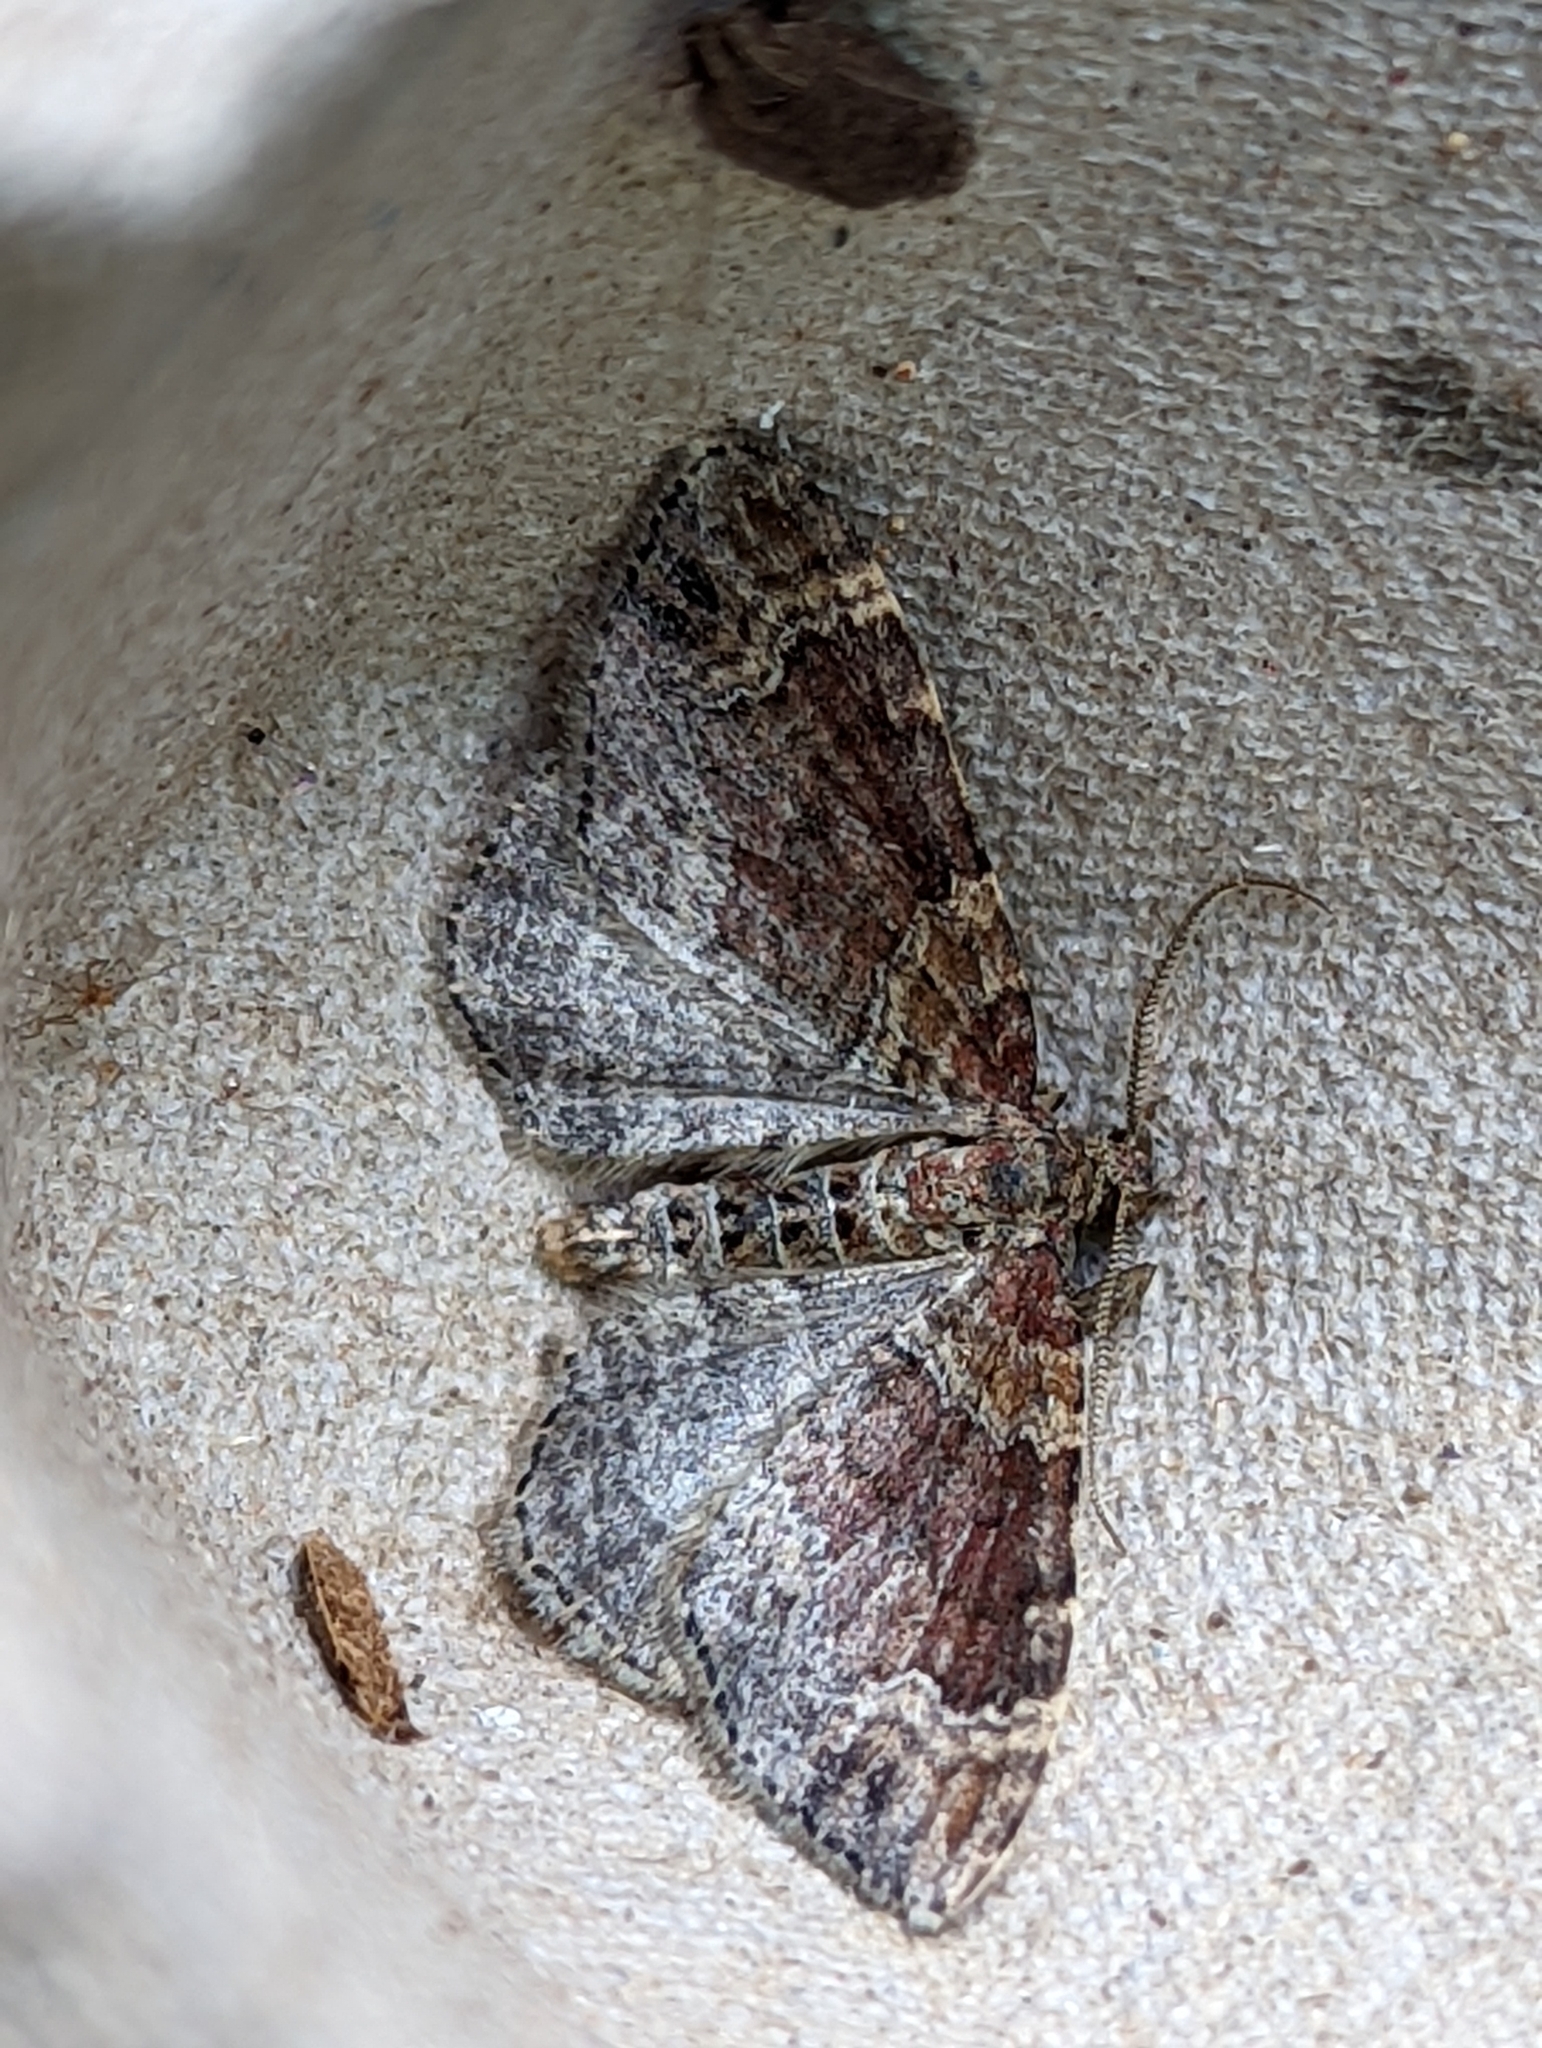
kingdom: Animalia
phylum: Arthropoda
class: Insecta
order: Lepidoptera
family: Geometridae
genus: Xanthorhoe
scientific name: Xanthorhoe spadicearia
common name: Red twin-spot carpet
